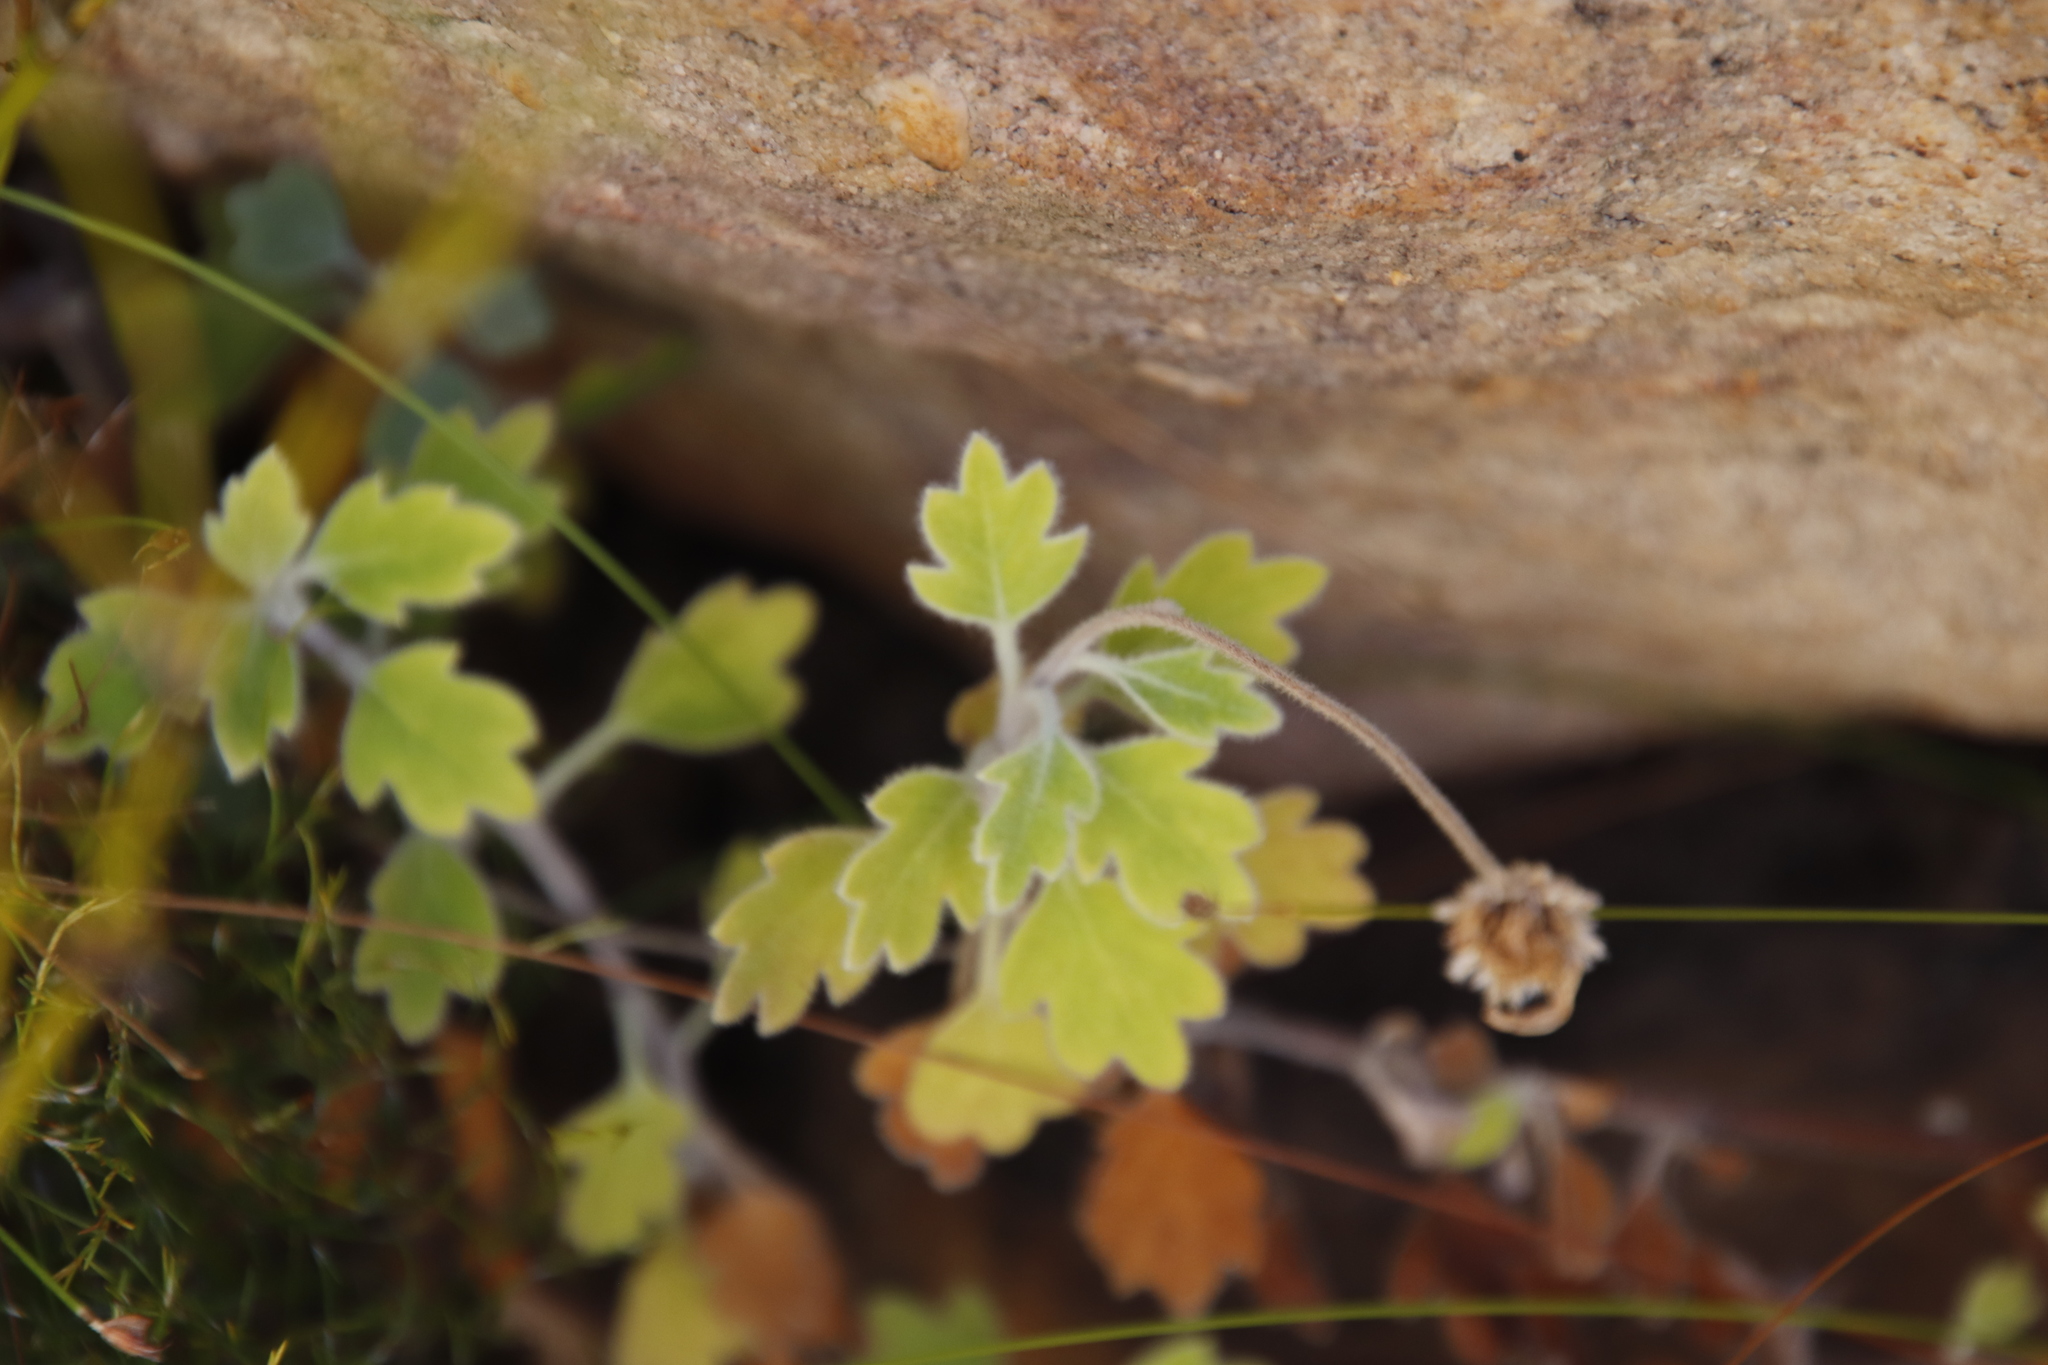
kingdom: Plantae
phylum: Tracheophyta
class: Magnoliopsida
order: Asterales
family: Asteraceae
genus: Lidbeckia
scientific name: Lidbeckia quinqueloba
